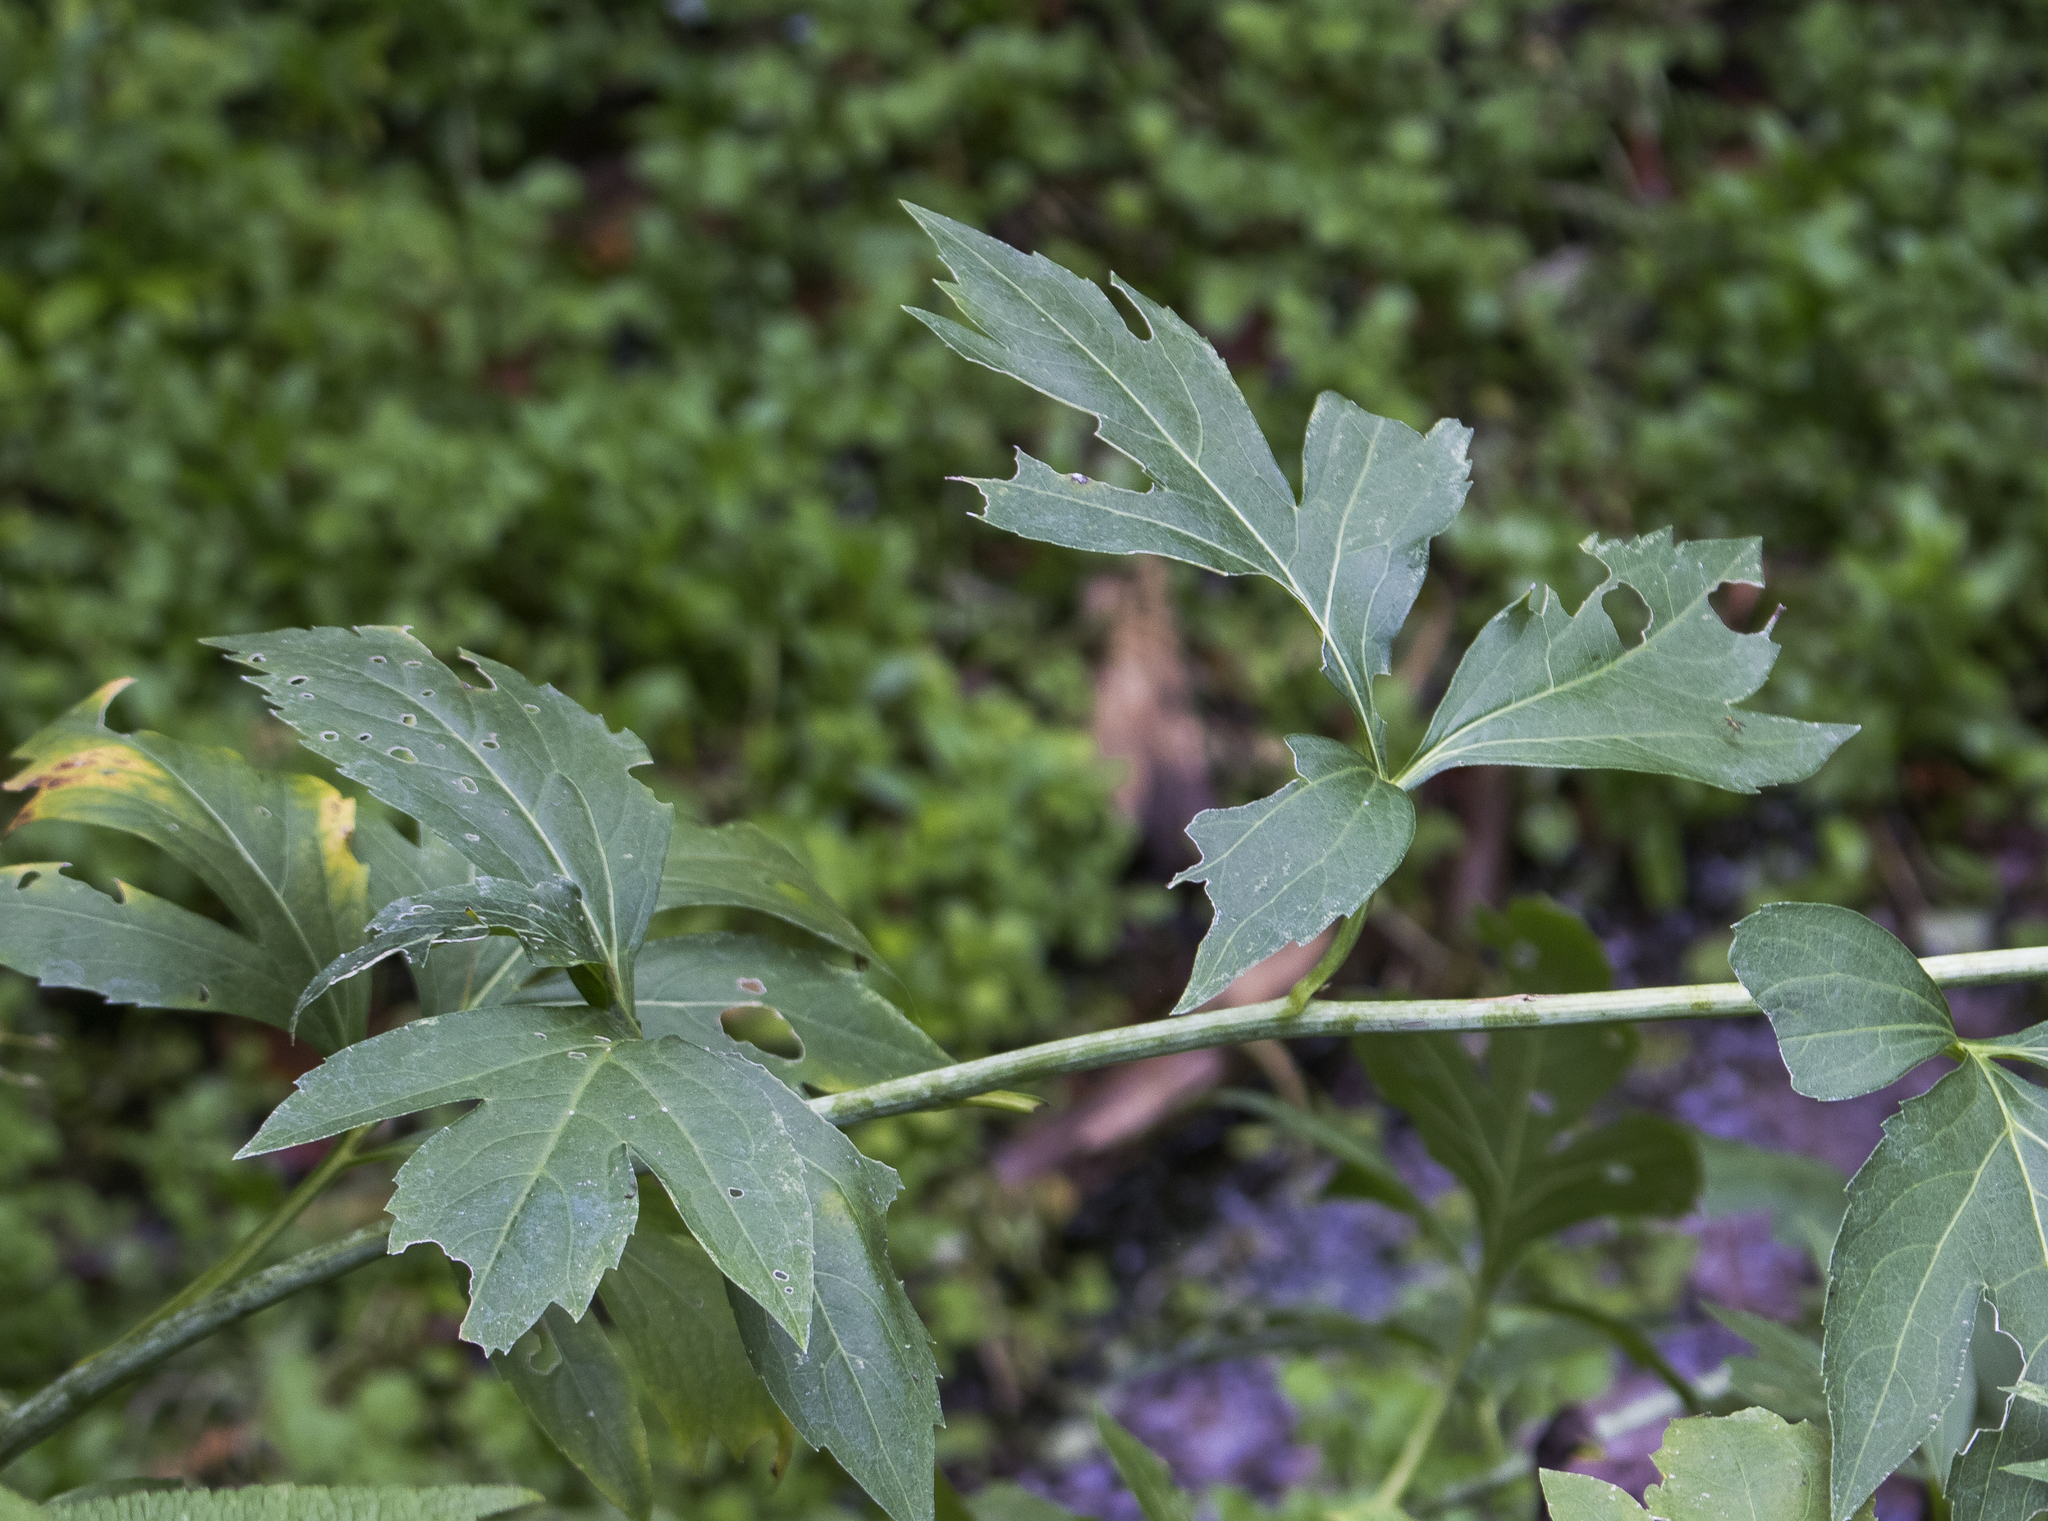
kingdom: Plantae
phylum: Tracheophyta
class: Magnoliopsida
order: Asterales
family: Asteraceae
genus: Rudbeckia
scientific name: Rudbeckia laciniata
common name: Coneflower
